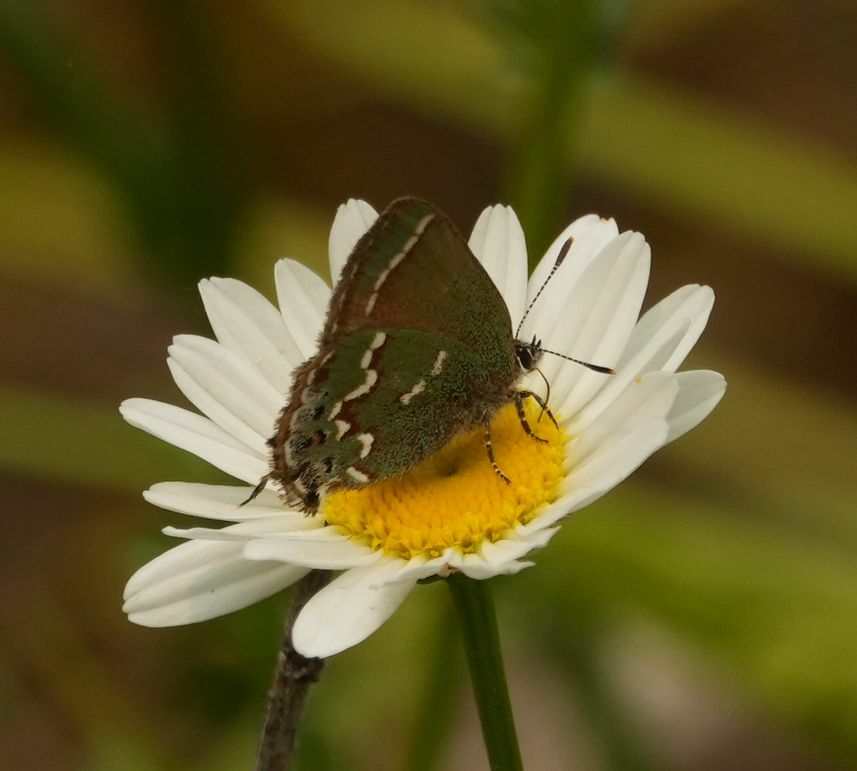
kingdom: Animalia
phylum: Arthropoda
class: Insecta
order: Lepidoptera
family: Lycaenidae
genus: Mitoura
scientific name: Mitoura gryneus
